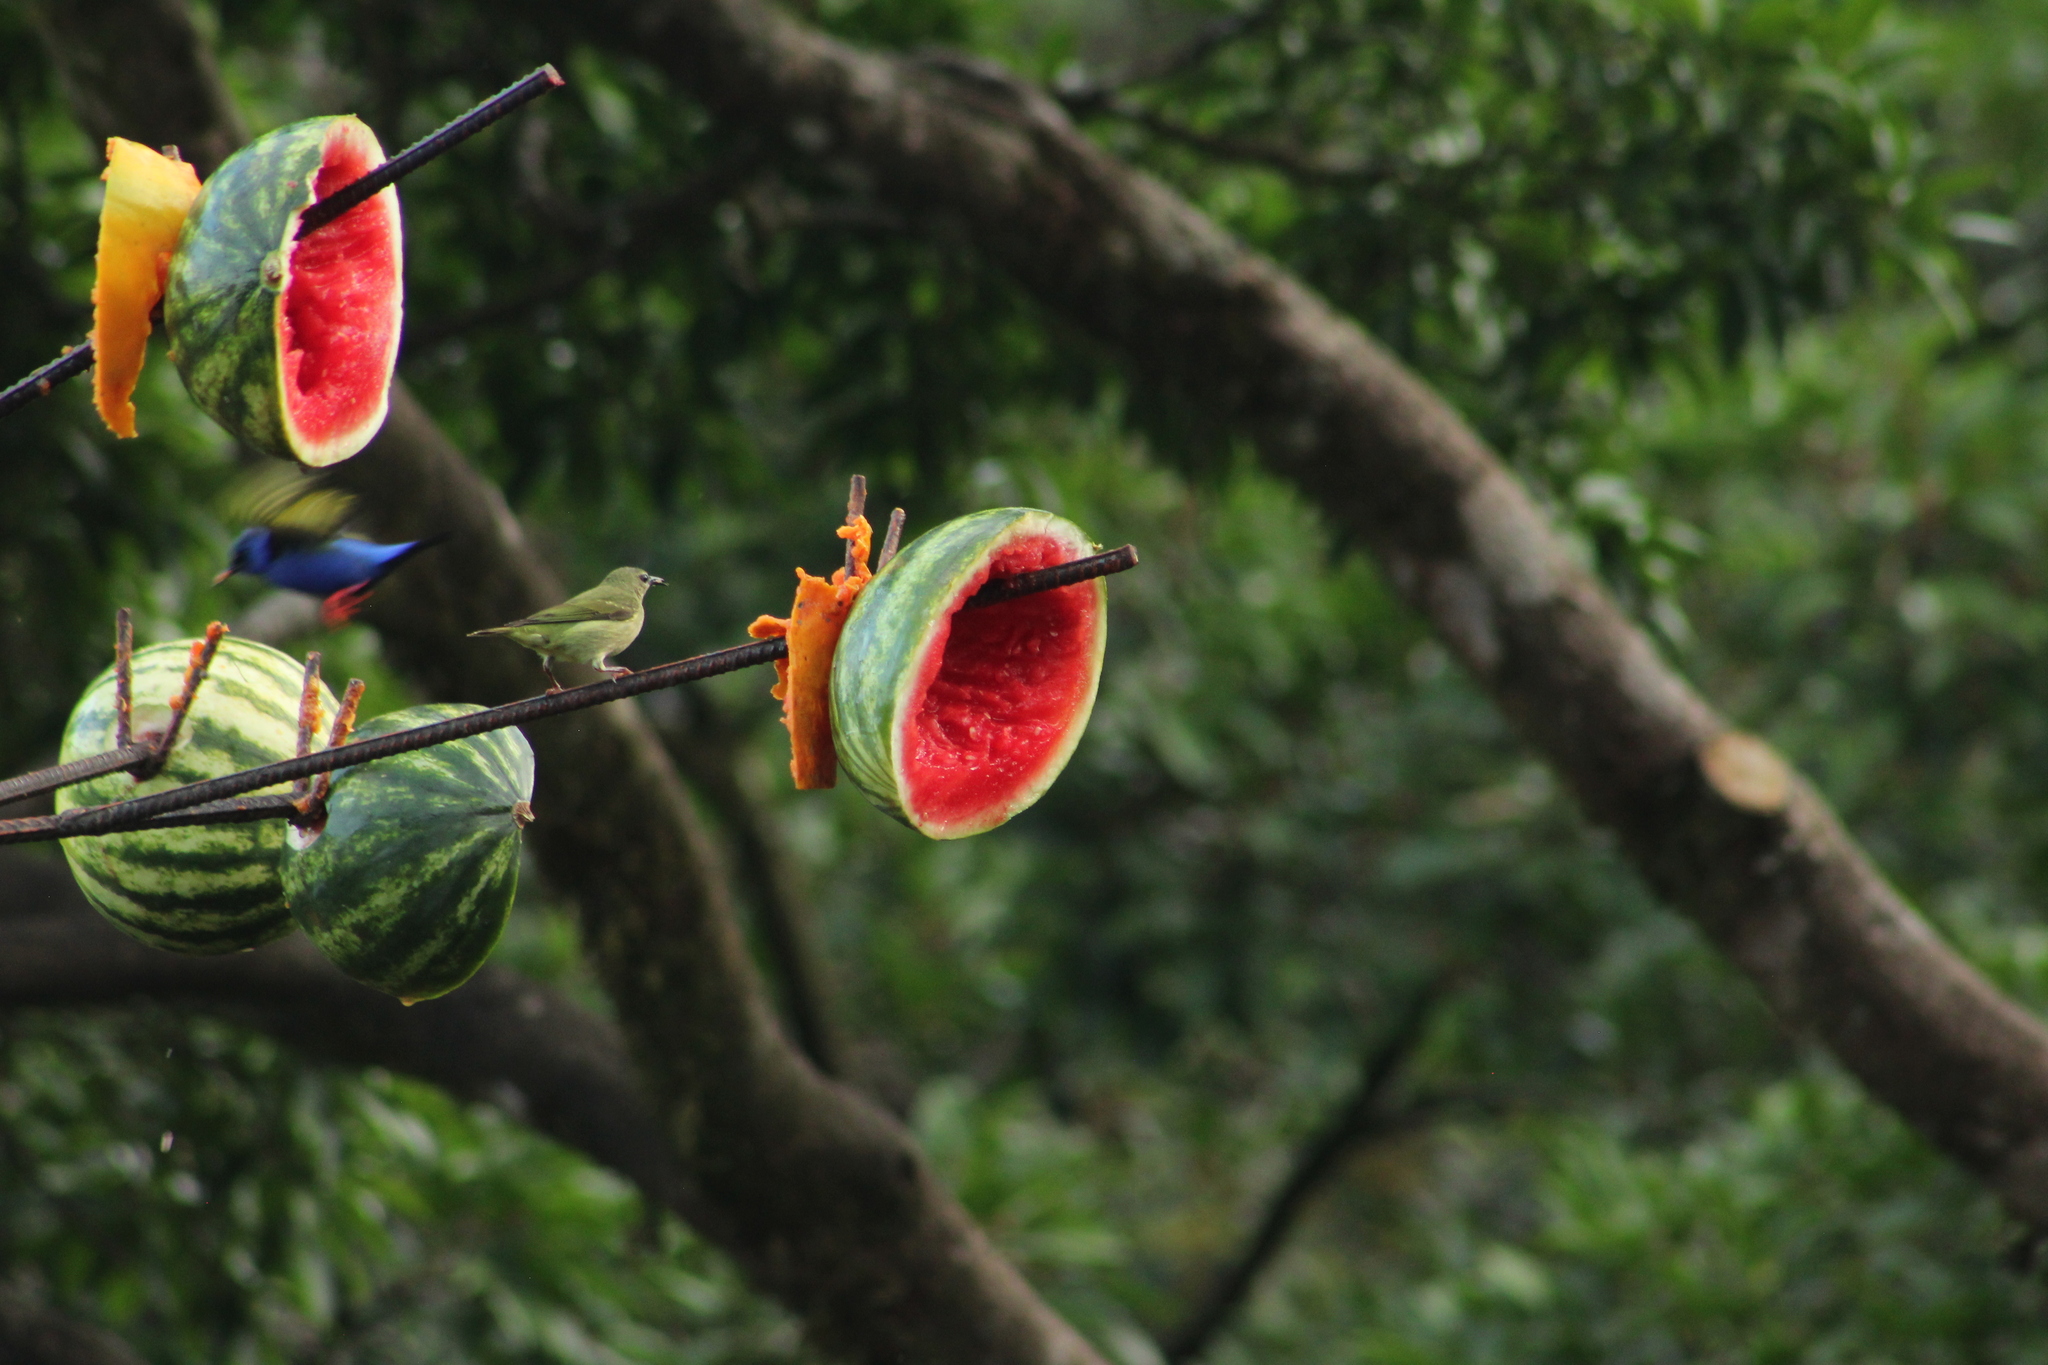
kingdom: Animalia
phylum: Chordata
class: Aves
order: Passeriformes
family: Thraupidae
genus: Cyanerpes
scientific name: Cyanerpes cyaneus
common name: Red-legged honeycreeper
